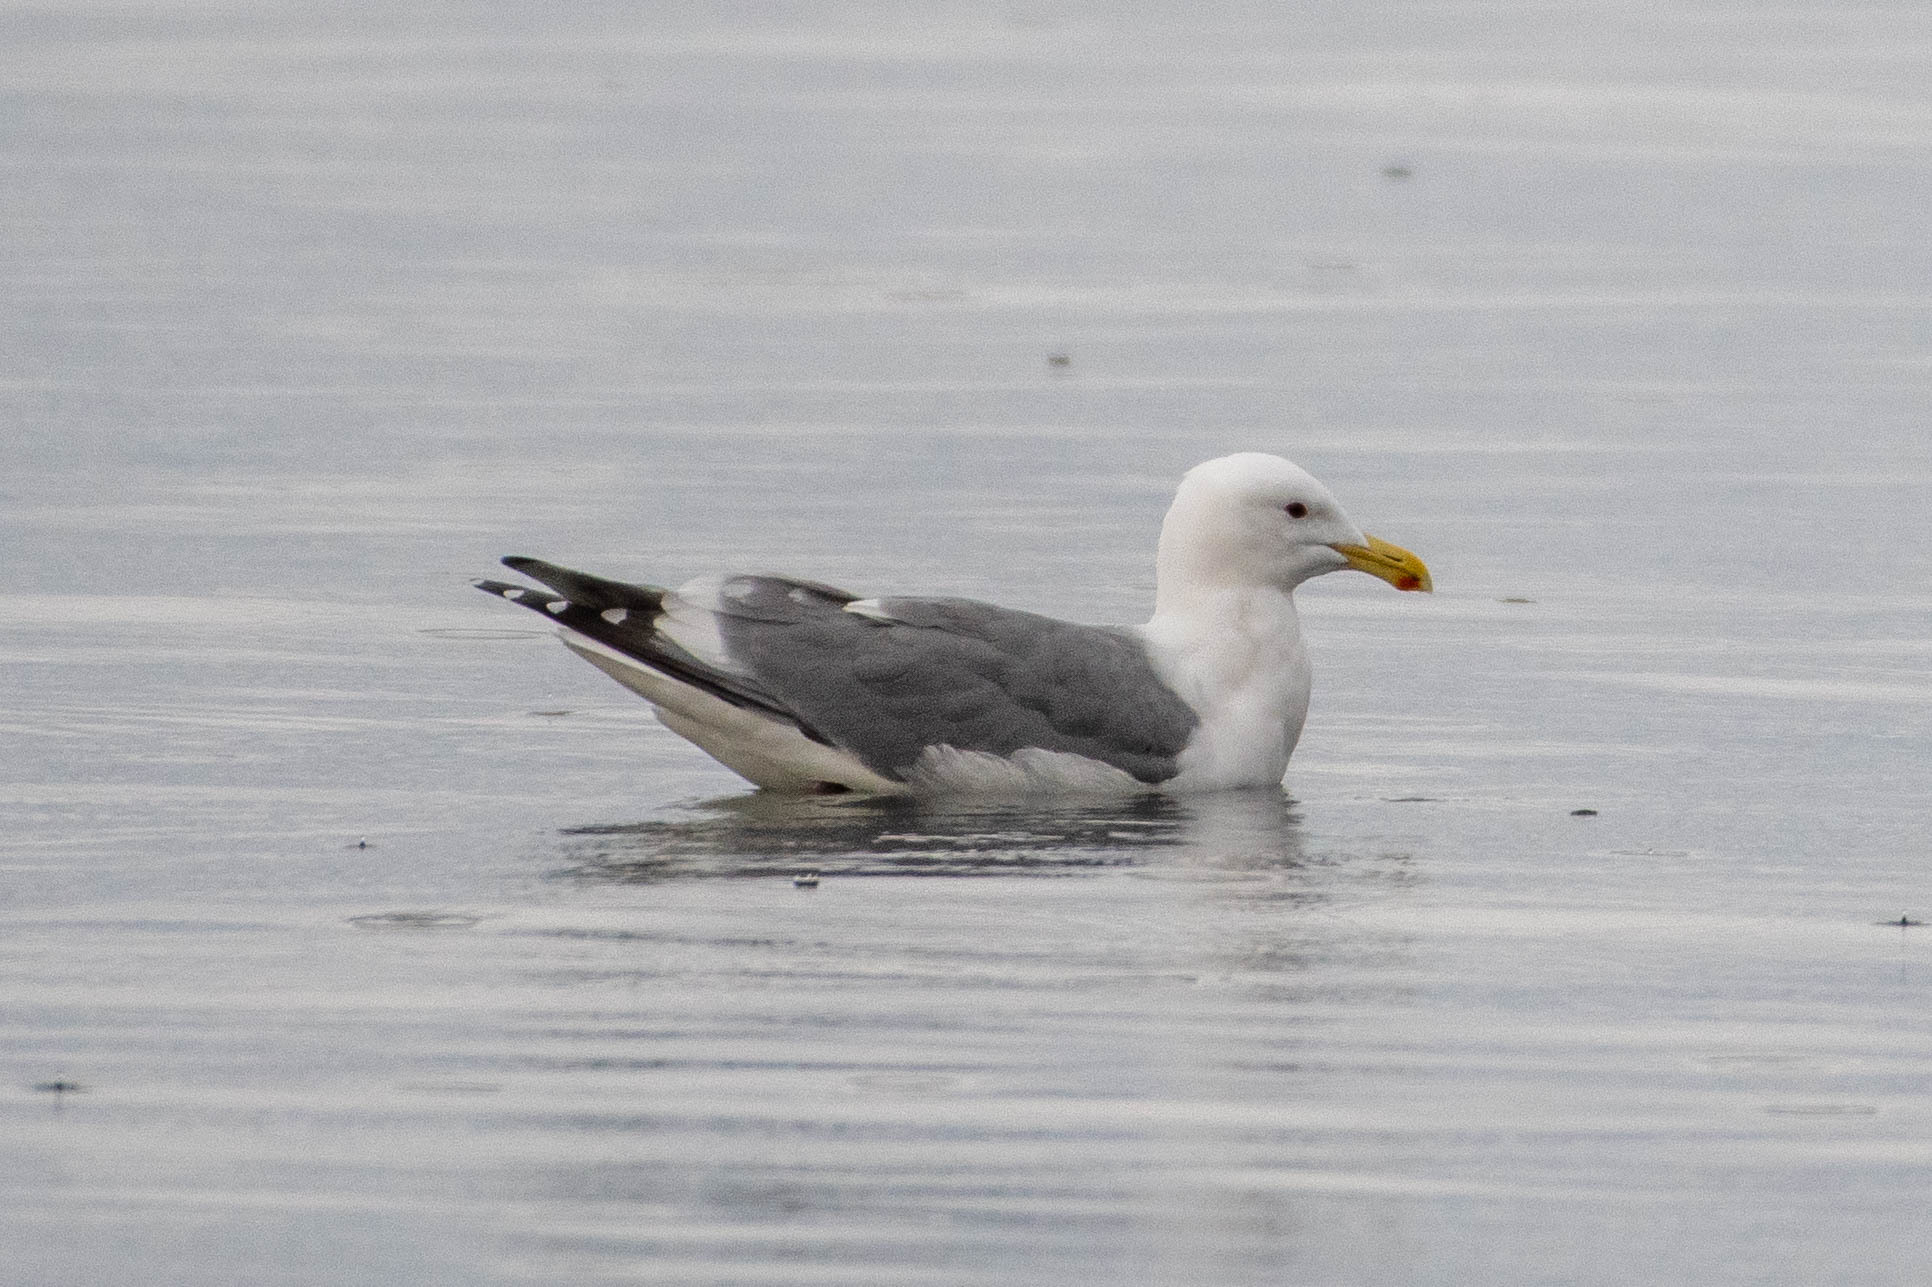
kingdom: Animalia
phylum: Chordata
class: Aves
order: Charadriiformes
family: Laridae
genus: Larus
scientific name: Larus
